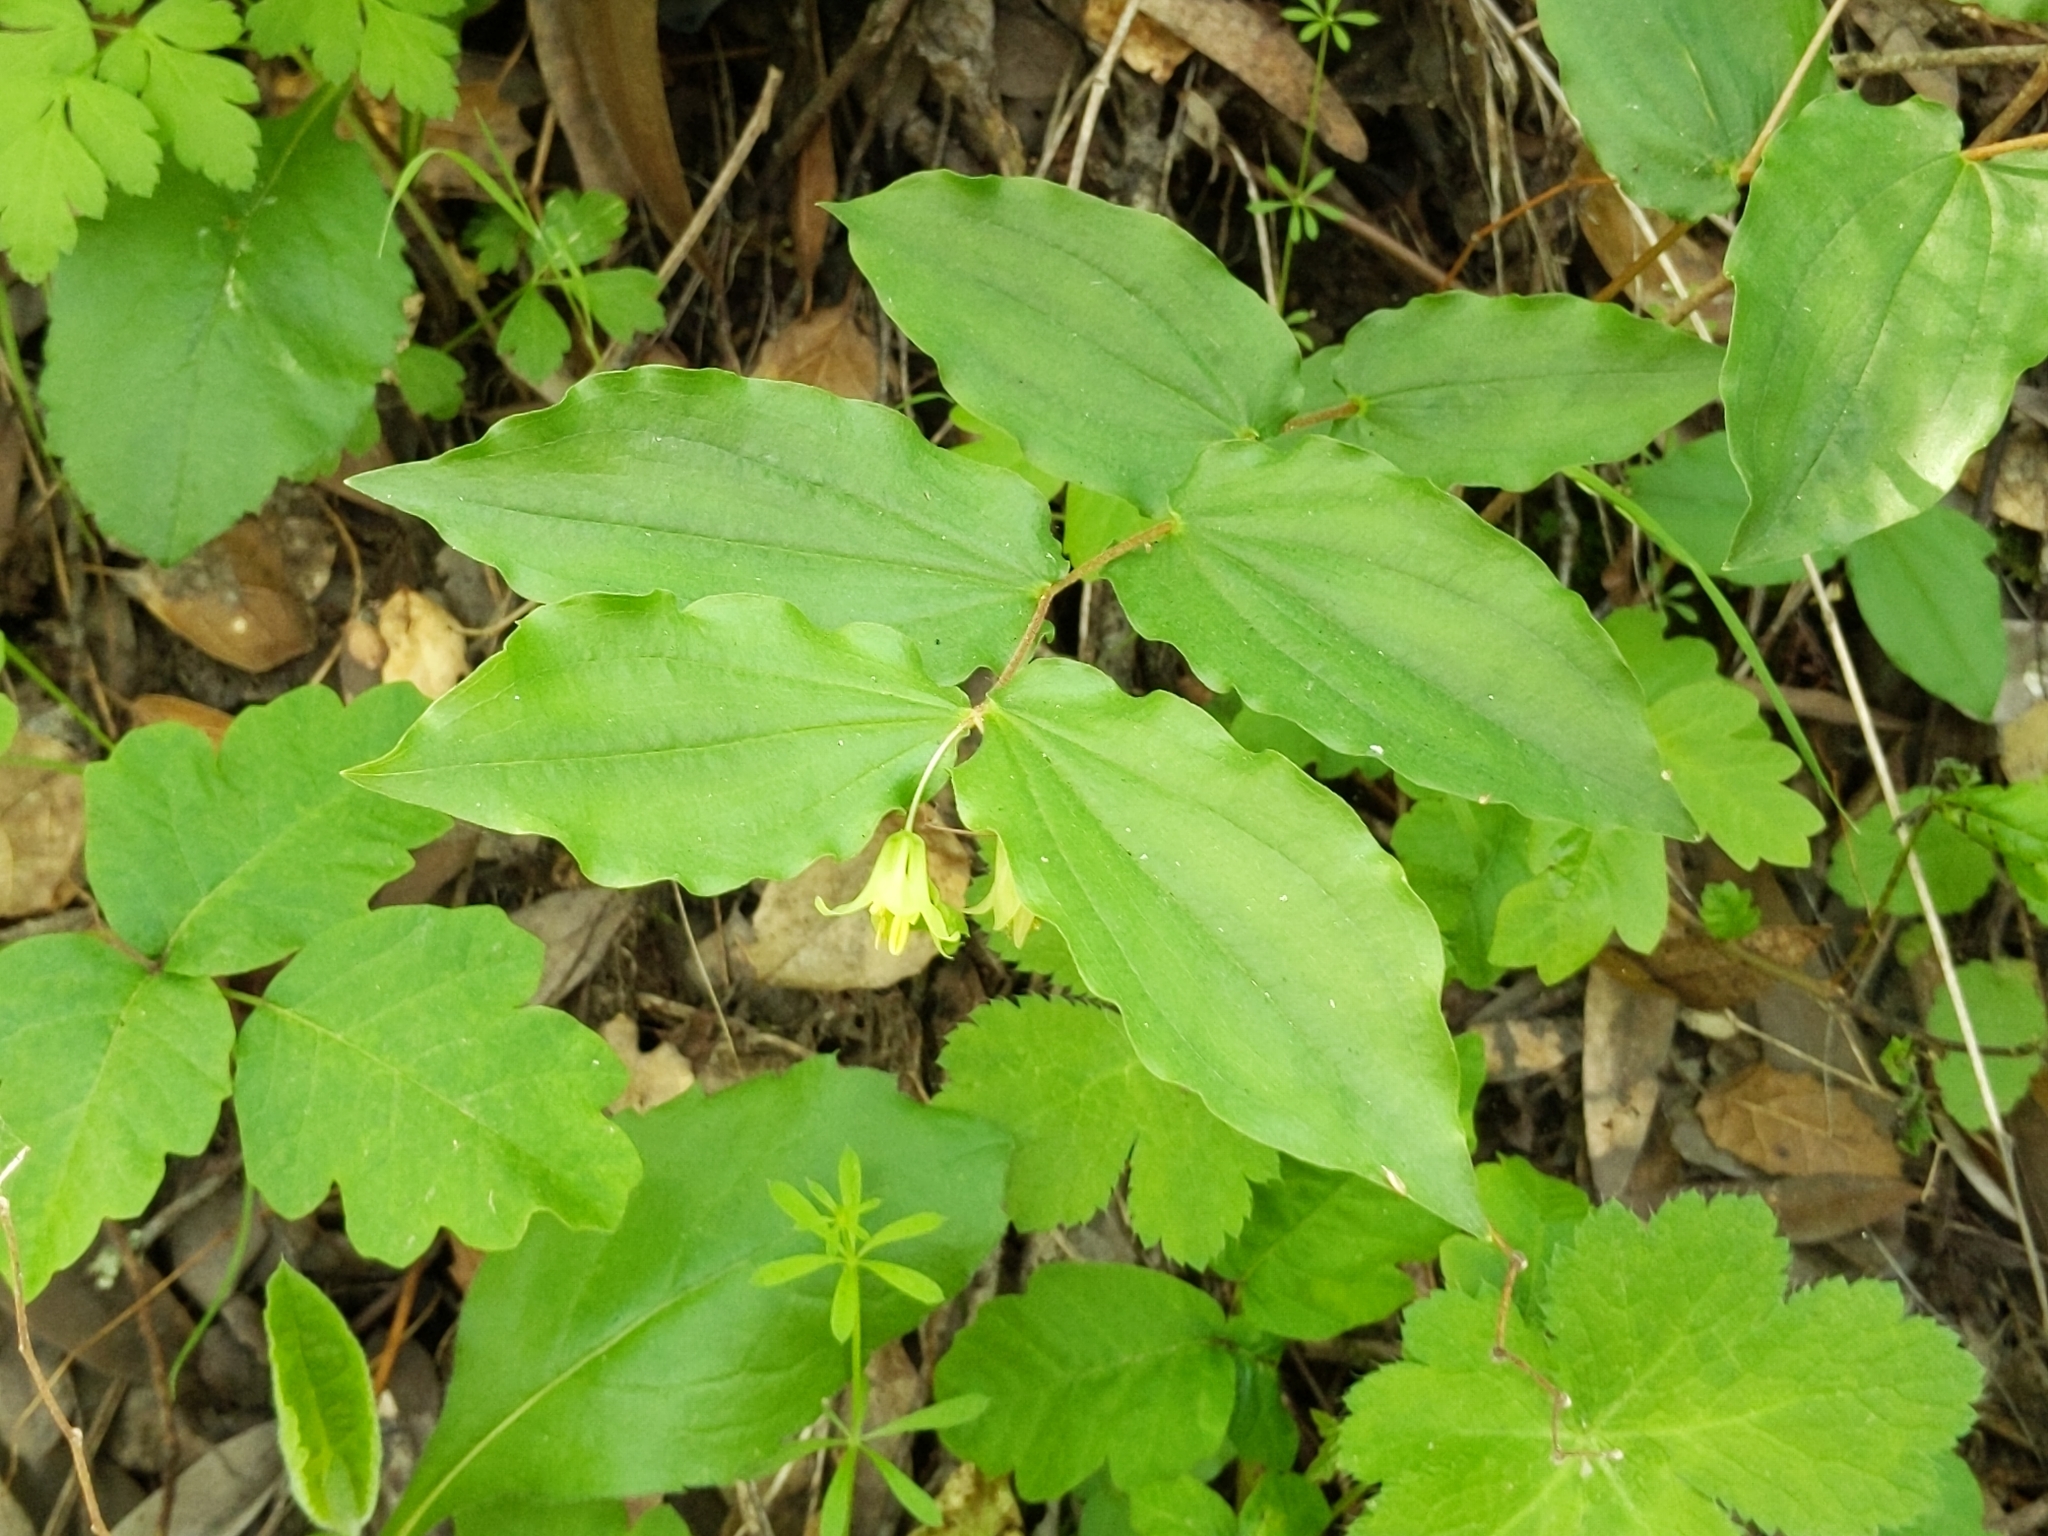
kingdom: Plantae
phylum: Tracheophyta
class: Liliopsida
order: Liliales
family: Liliaceae
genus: Prosartes
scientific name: Prosartes hookeri
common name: Fairy-bells
